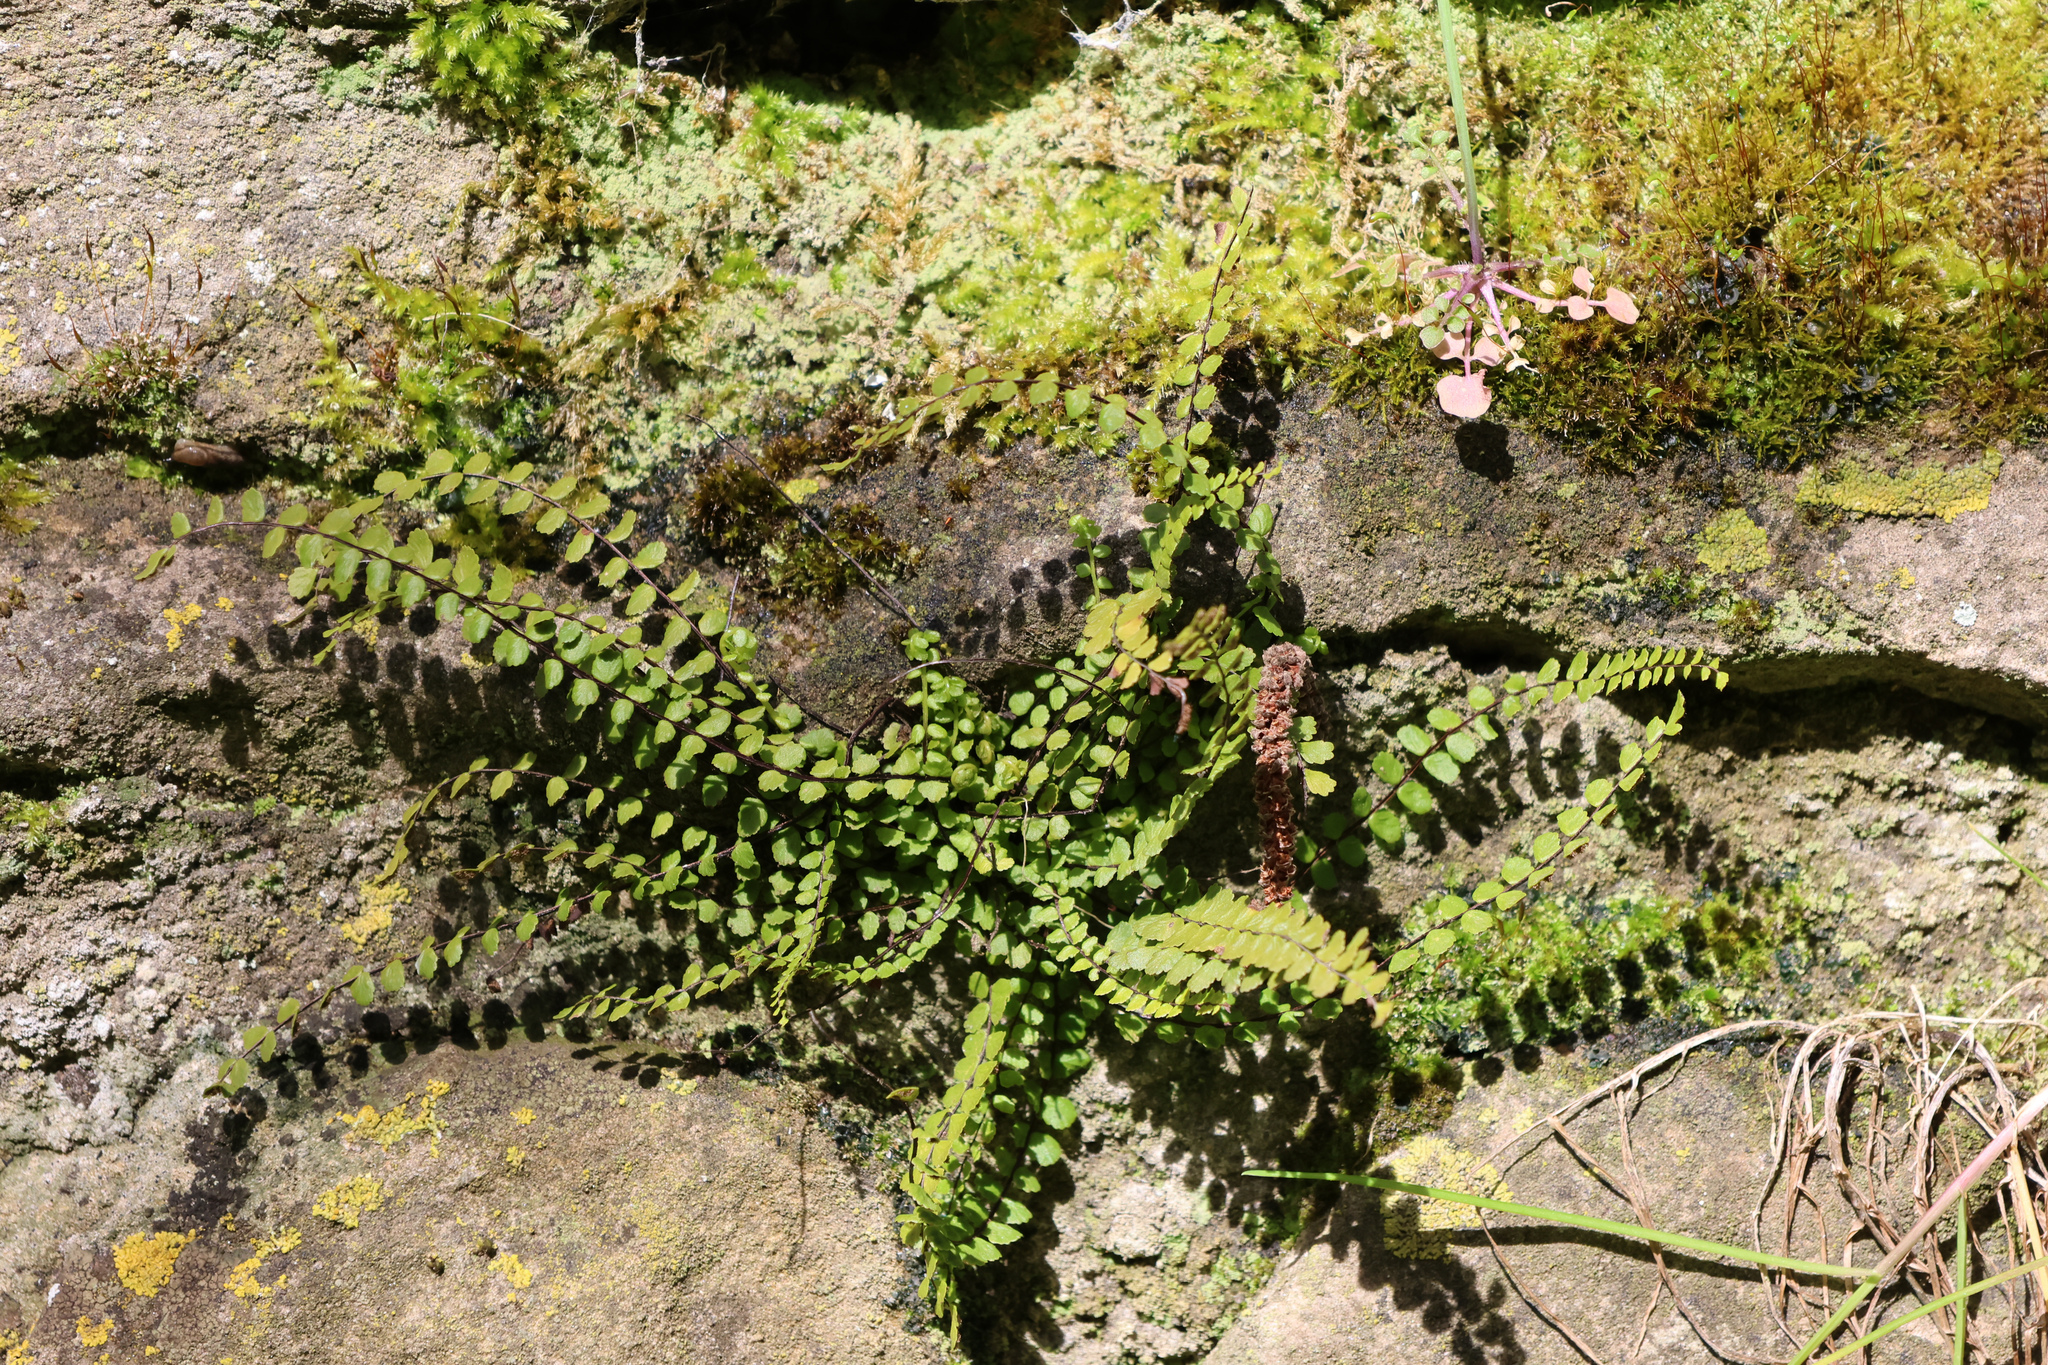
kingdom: Plantae
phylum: Tracheophyta
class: Polypodiopsida
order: Polypodiales
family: Aspleniaceae
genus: Asplenium
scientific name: Asplenium trichomanes
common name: Maidenhair spleenwort
